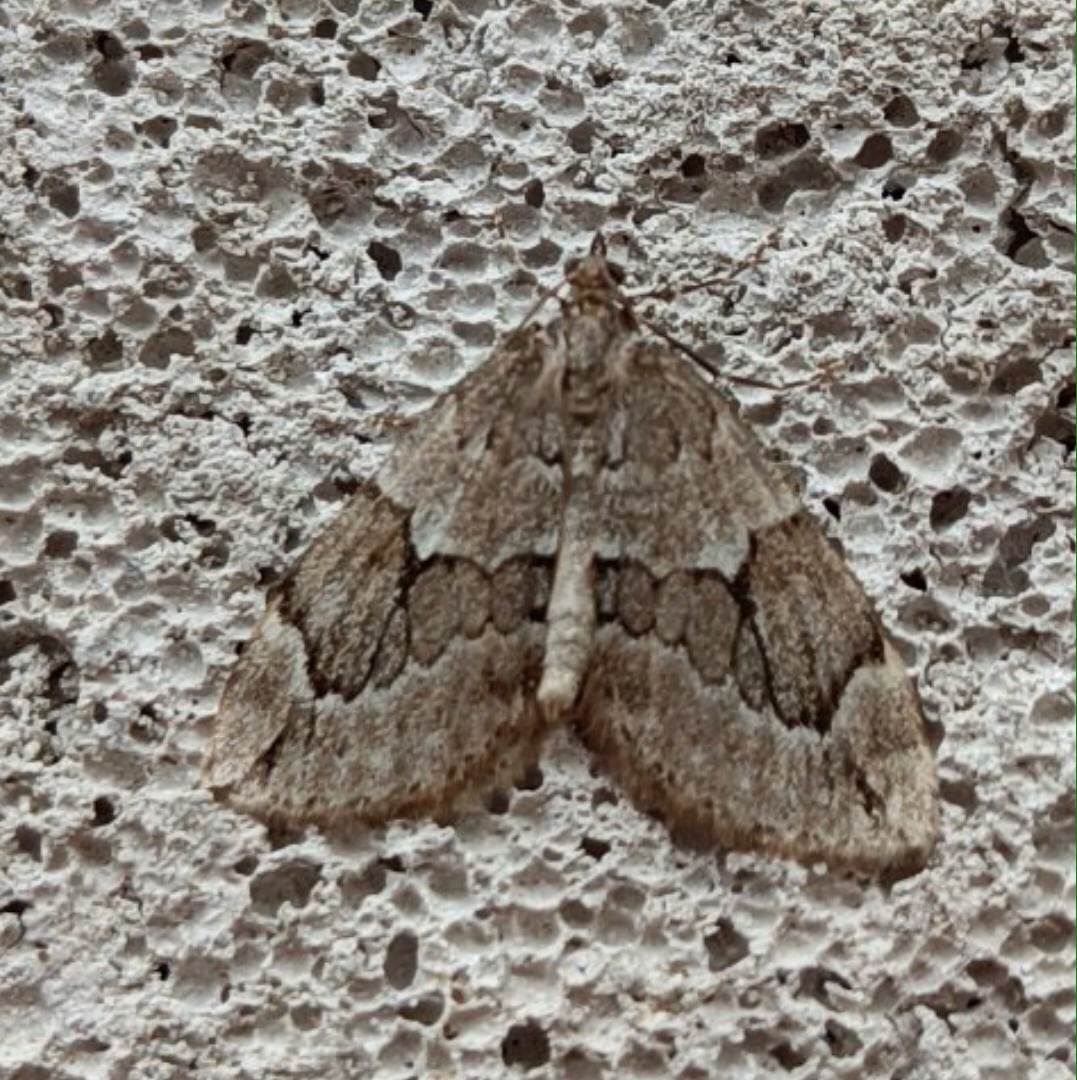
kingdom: Animalia
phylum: Arthropoda
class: Insecta
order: Lepidoptera
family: Geometridae
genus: Thera
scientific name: Thera juniperata
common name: Juniper carpet
